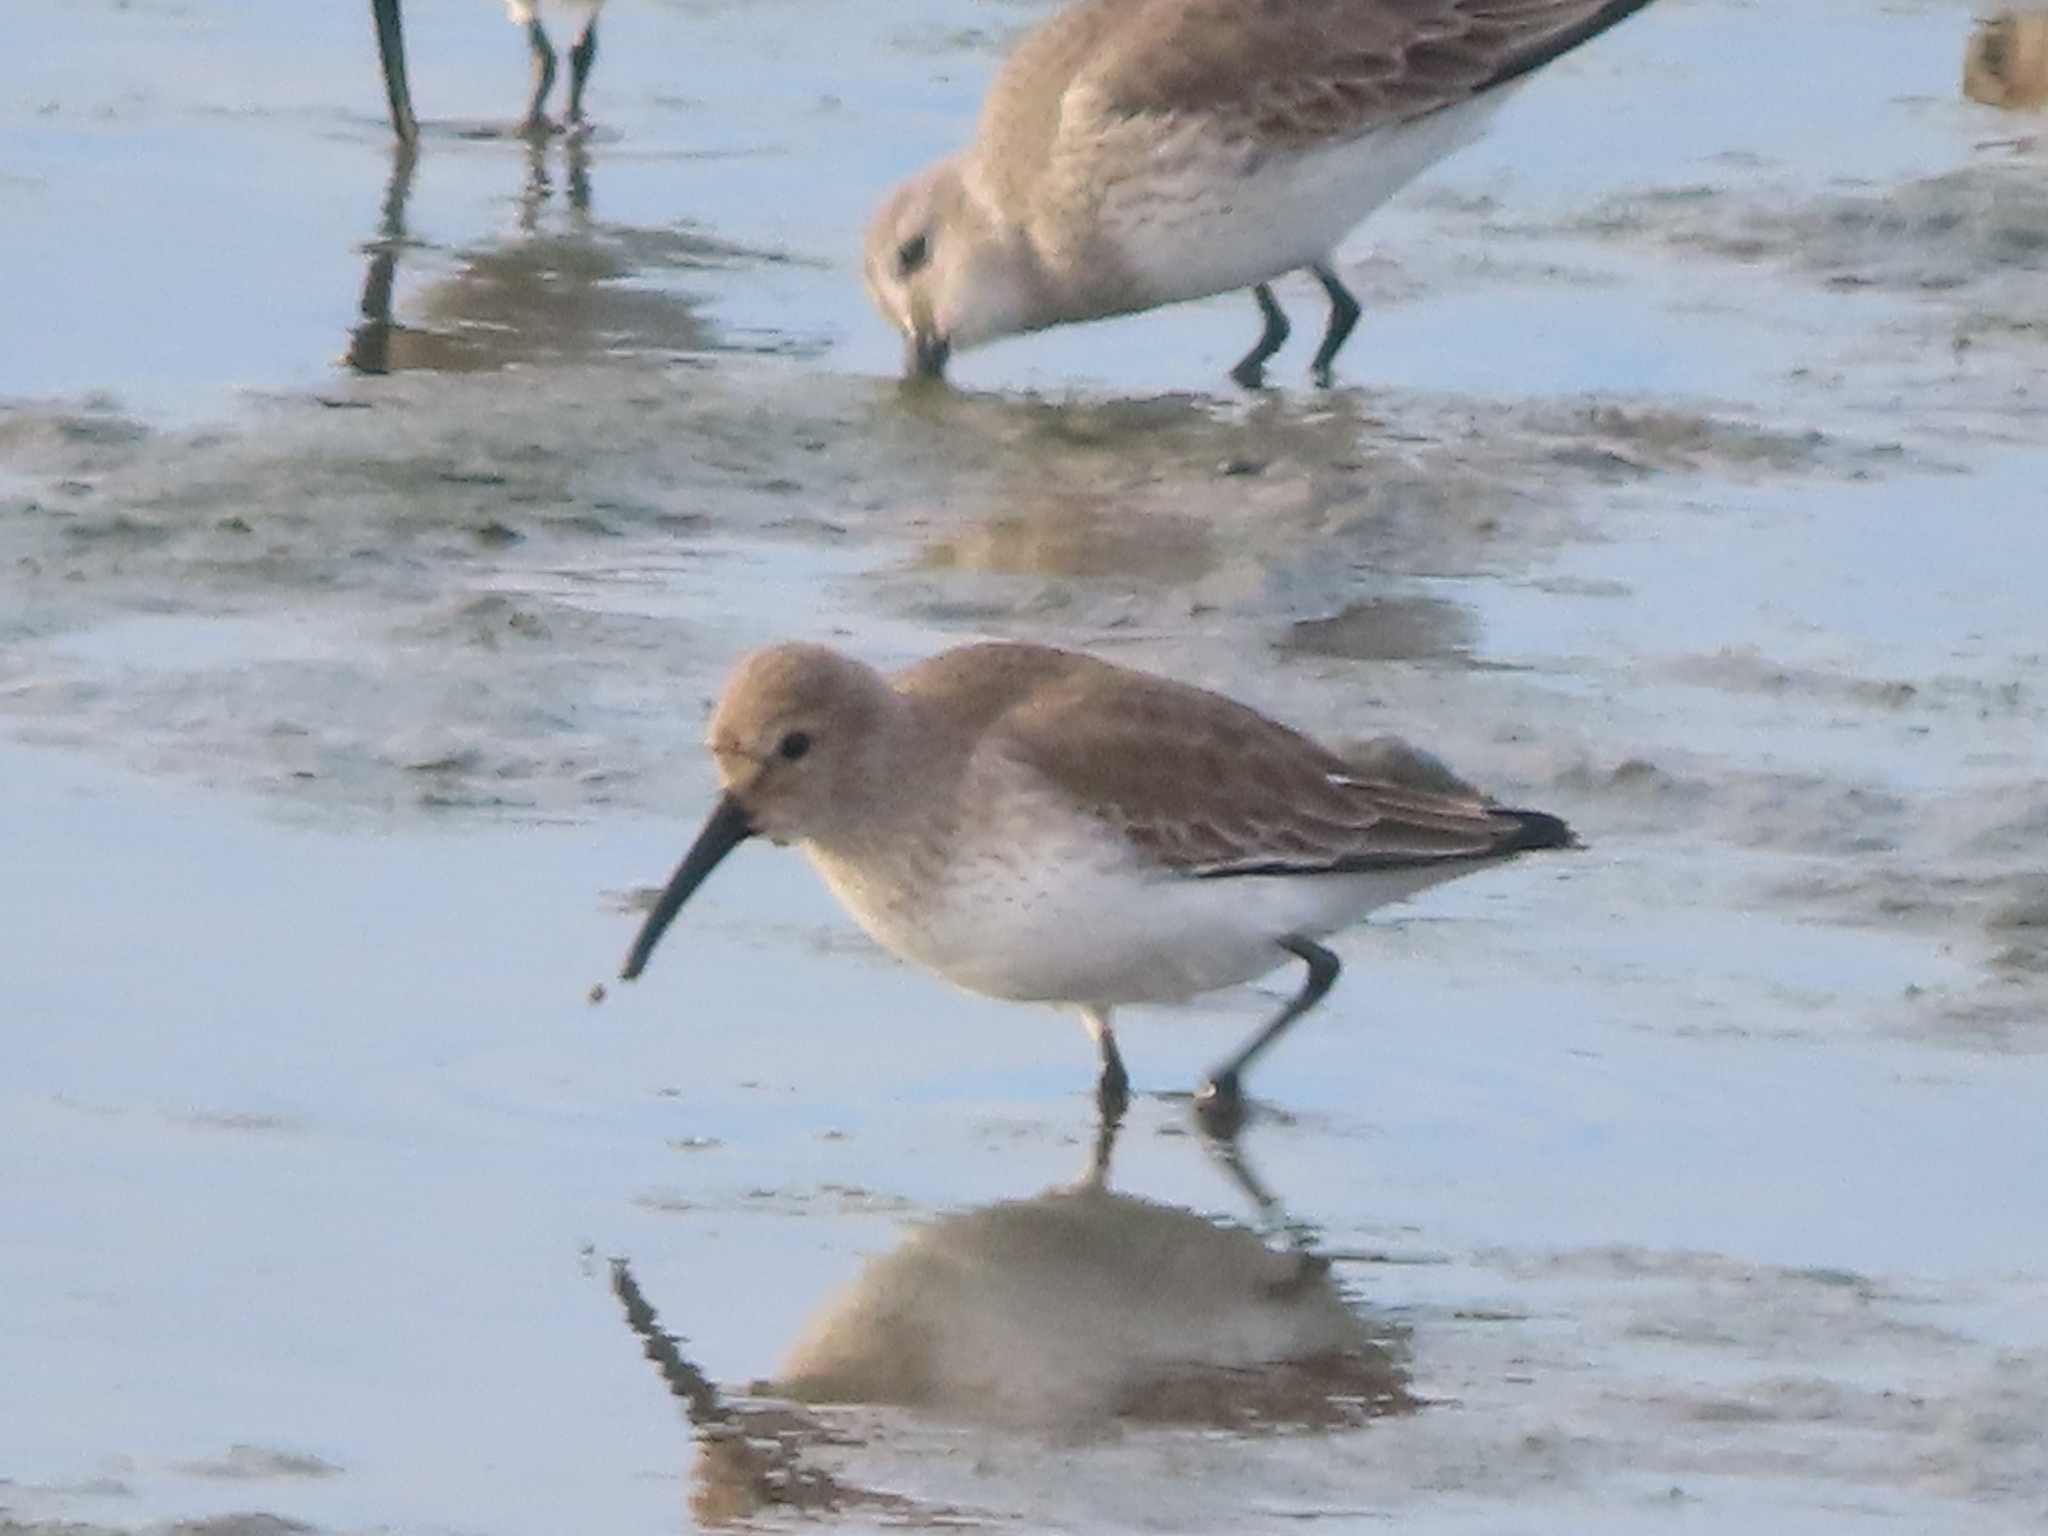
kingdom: Animalia
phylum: Chordata
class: Aves
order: Charadriiformes
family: Scolopacidae
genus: Calidris
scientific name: Calidris alpina
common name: Dunlin
